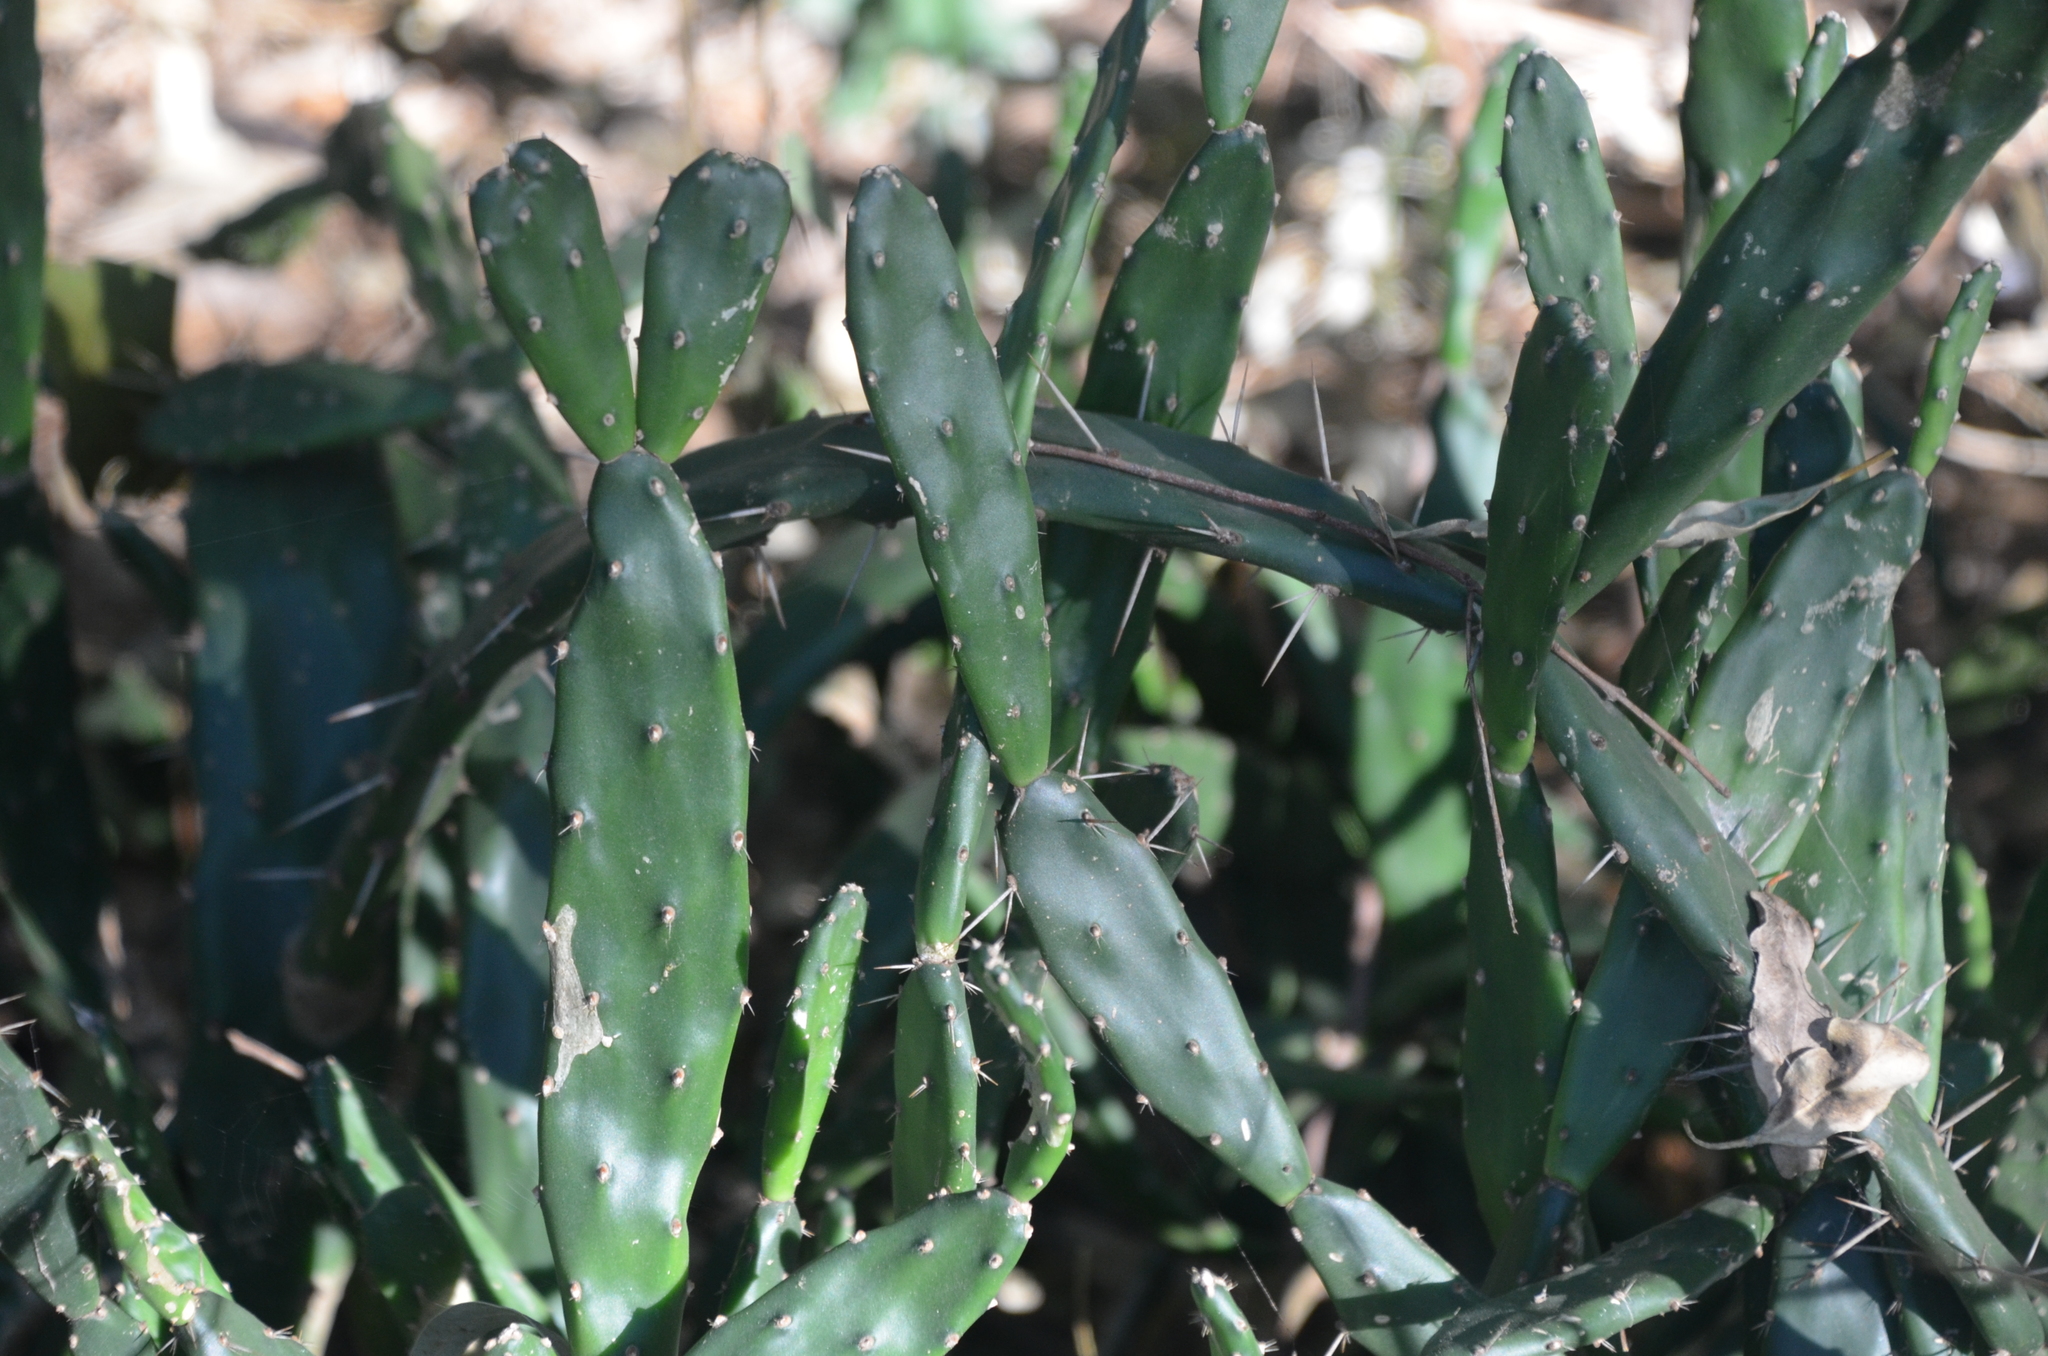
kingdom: Plantae
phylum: Tracheophyta
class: Magnoliopsida
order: Caryophyllales
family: Cactaceae
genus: Opuntia
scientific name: Opuntia anacantha
